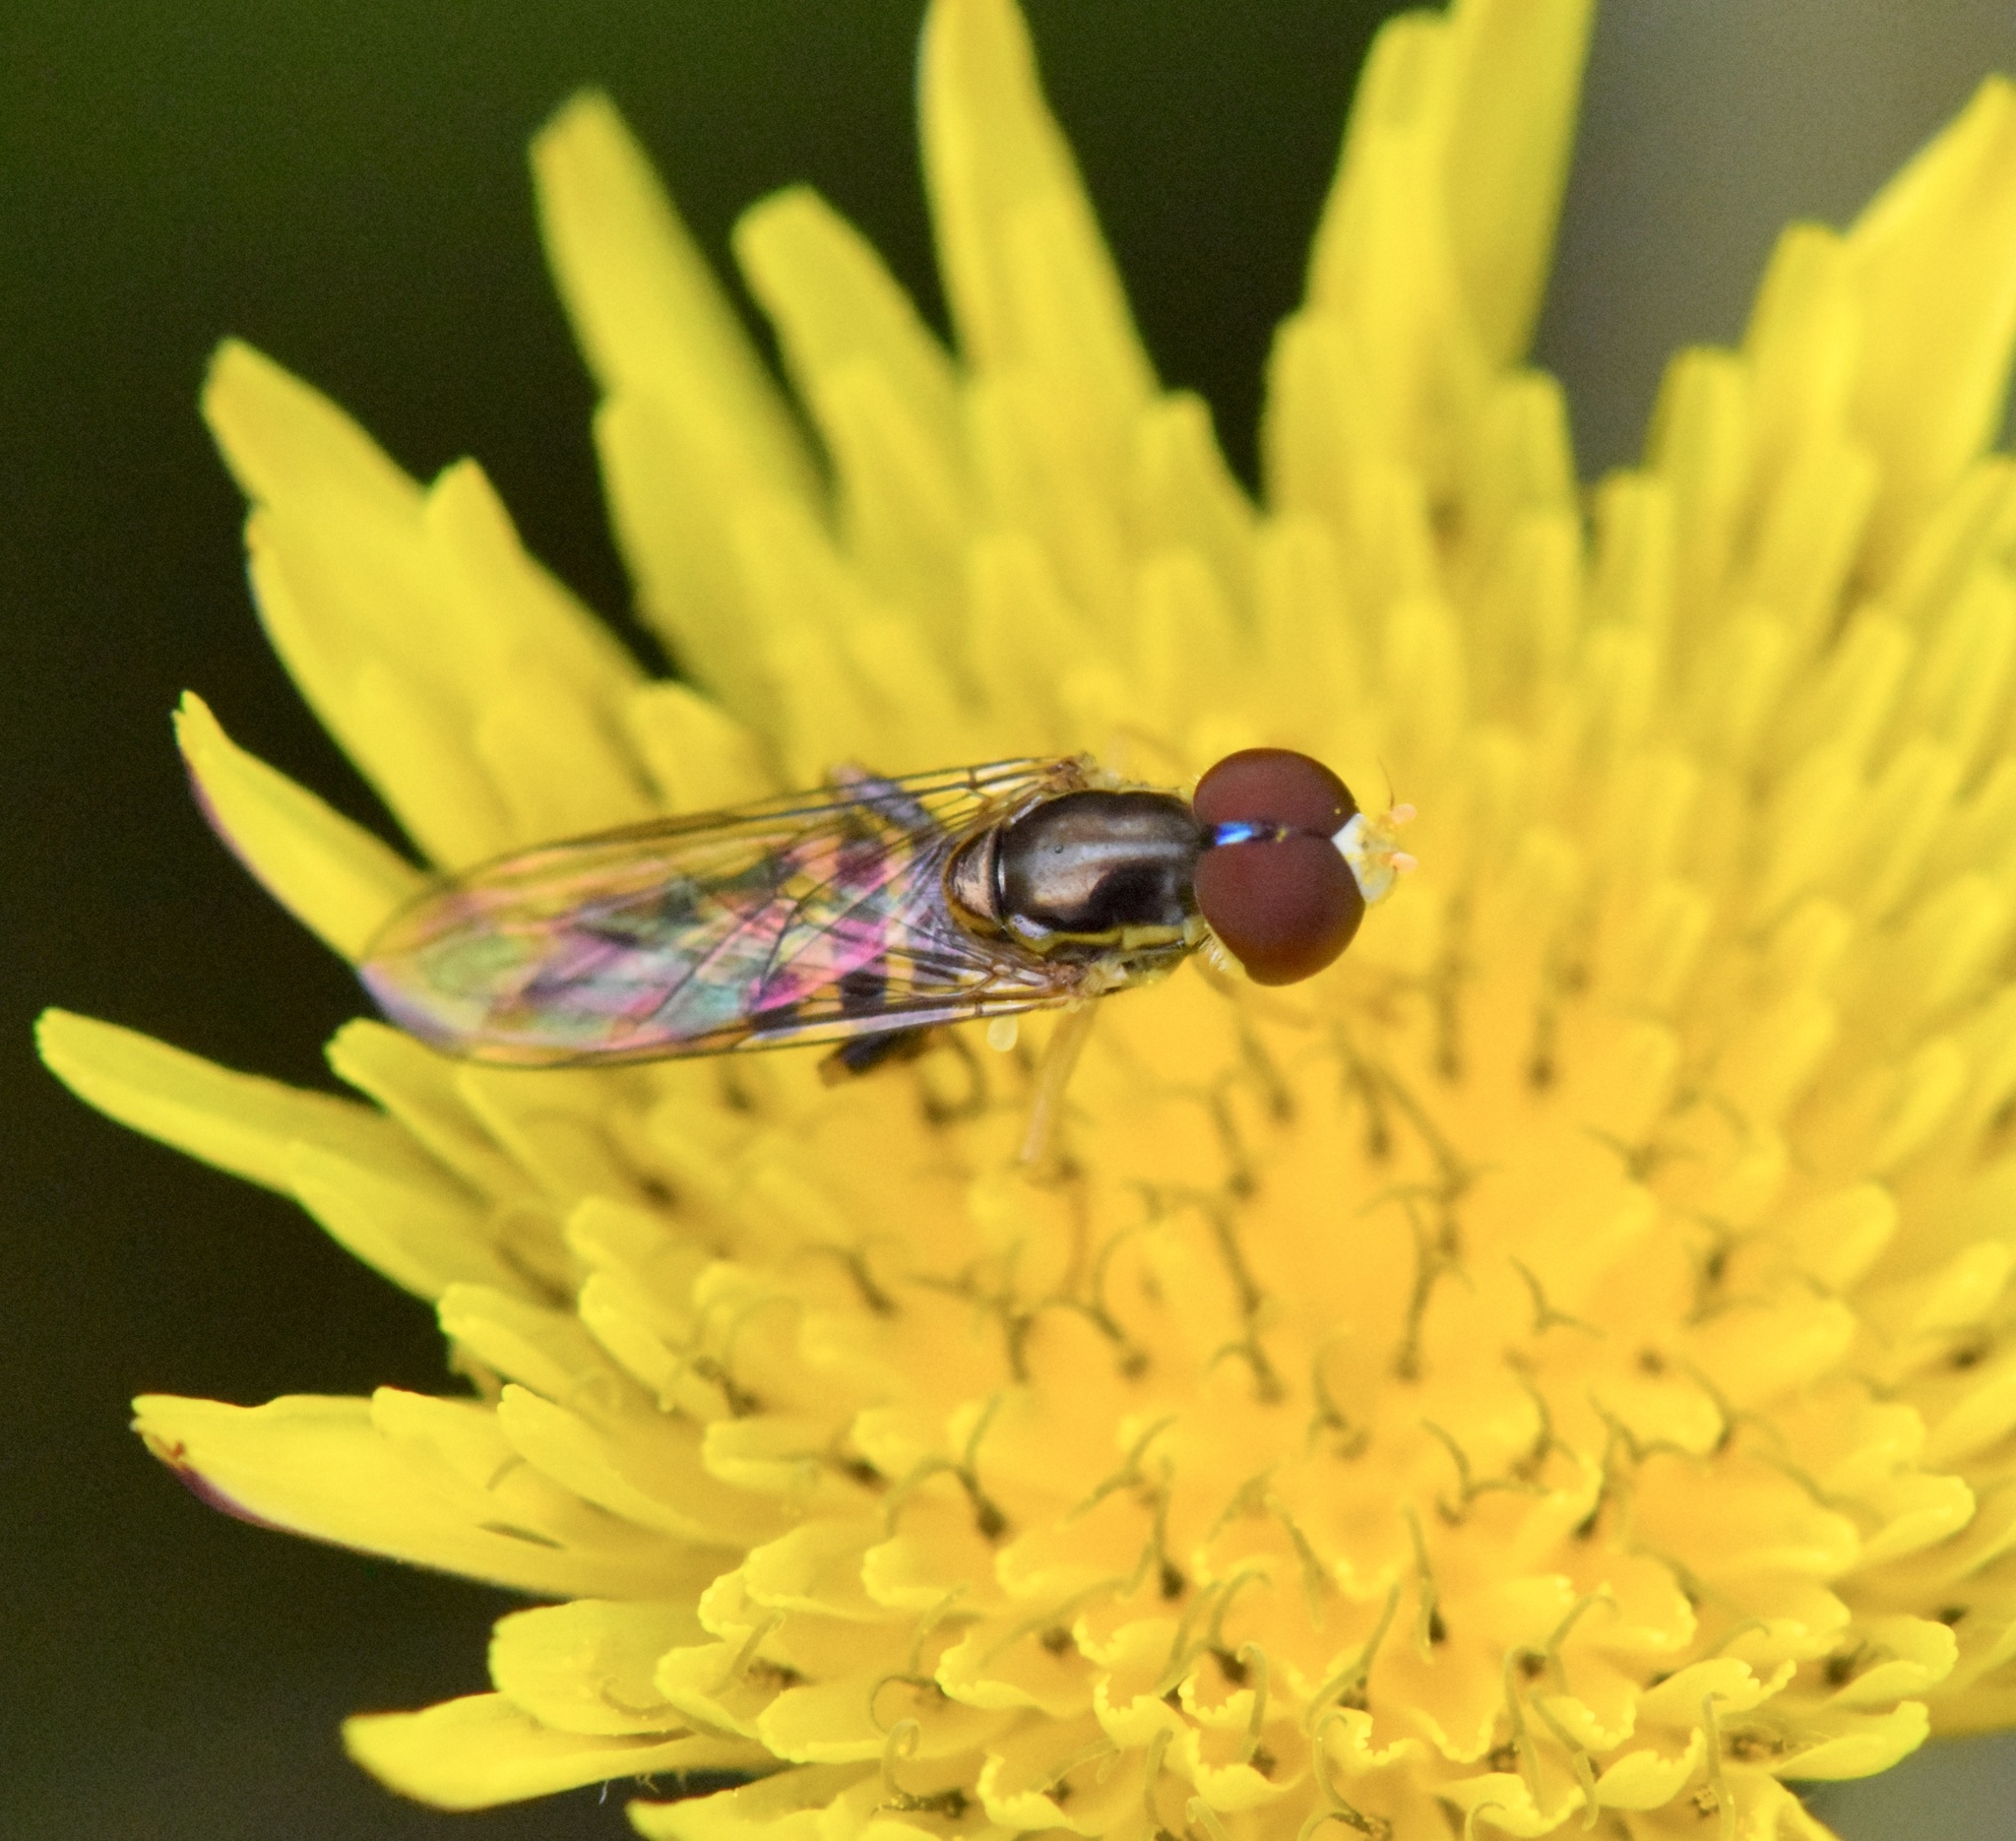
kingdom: Animalia
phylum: Arthropoda
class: Insecta
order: Diptera
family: Syrphidae
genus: Toxomerus
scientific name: Toxomerus geminatus
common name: Eastern calligrapher
